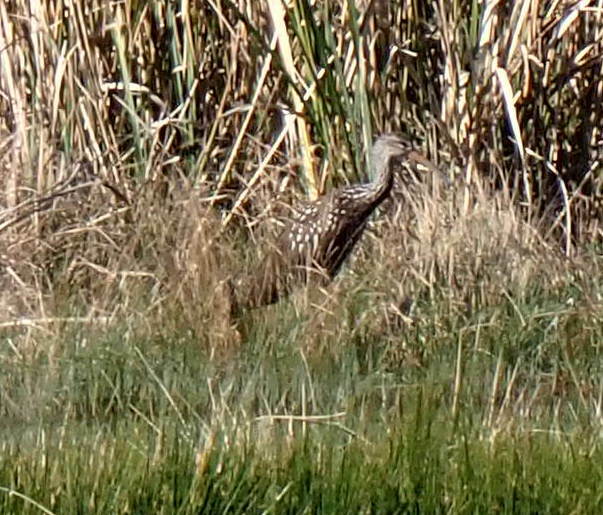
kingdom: Animalia
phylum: Chordata
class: Aves
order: Gruiformes
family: Aramidae
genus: Aramus
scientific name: Aramus guarauna
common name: Limpkin
